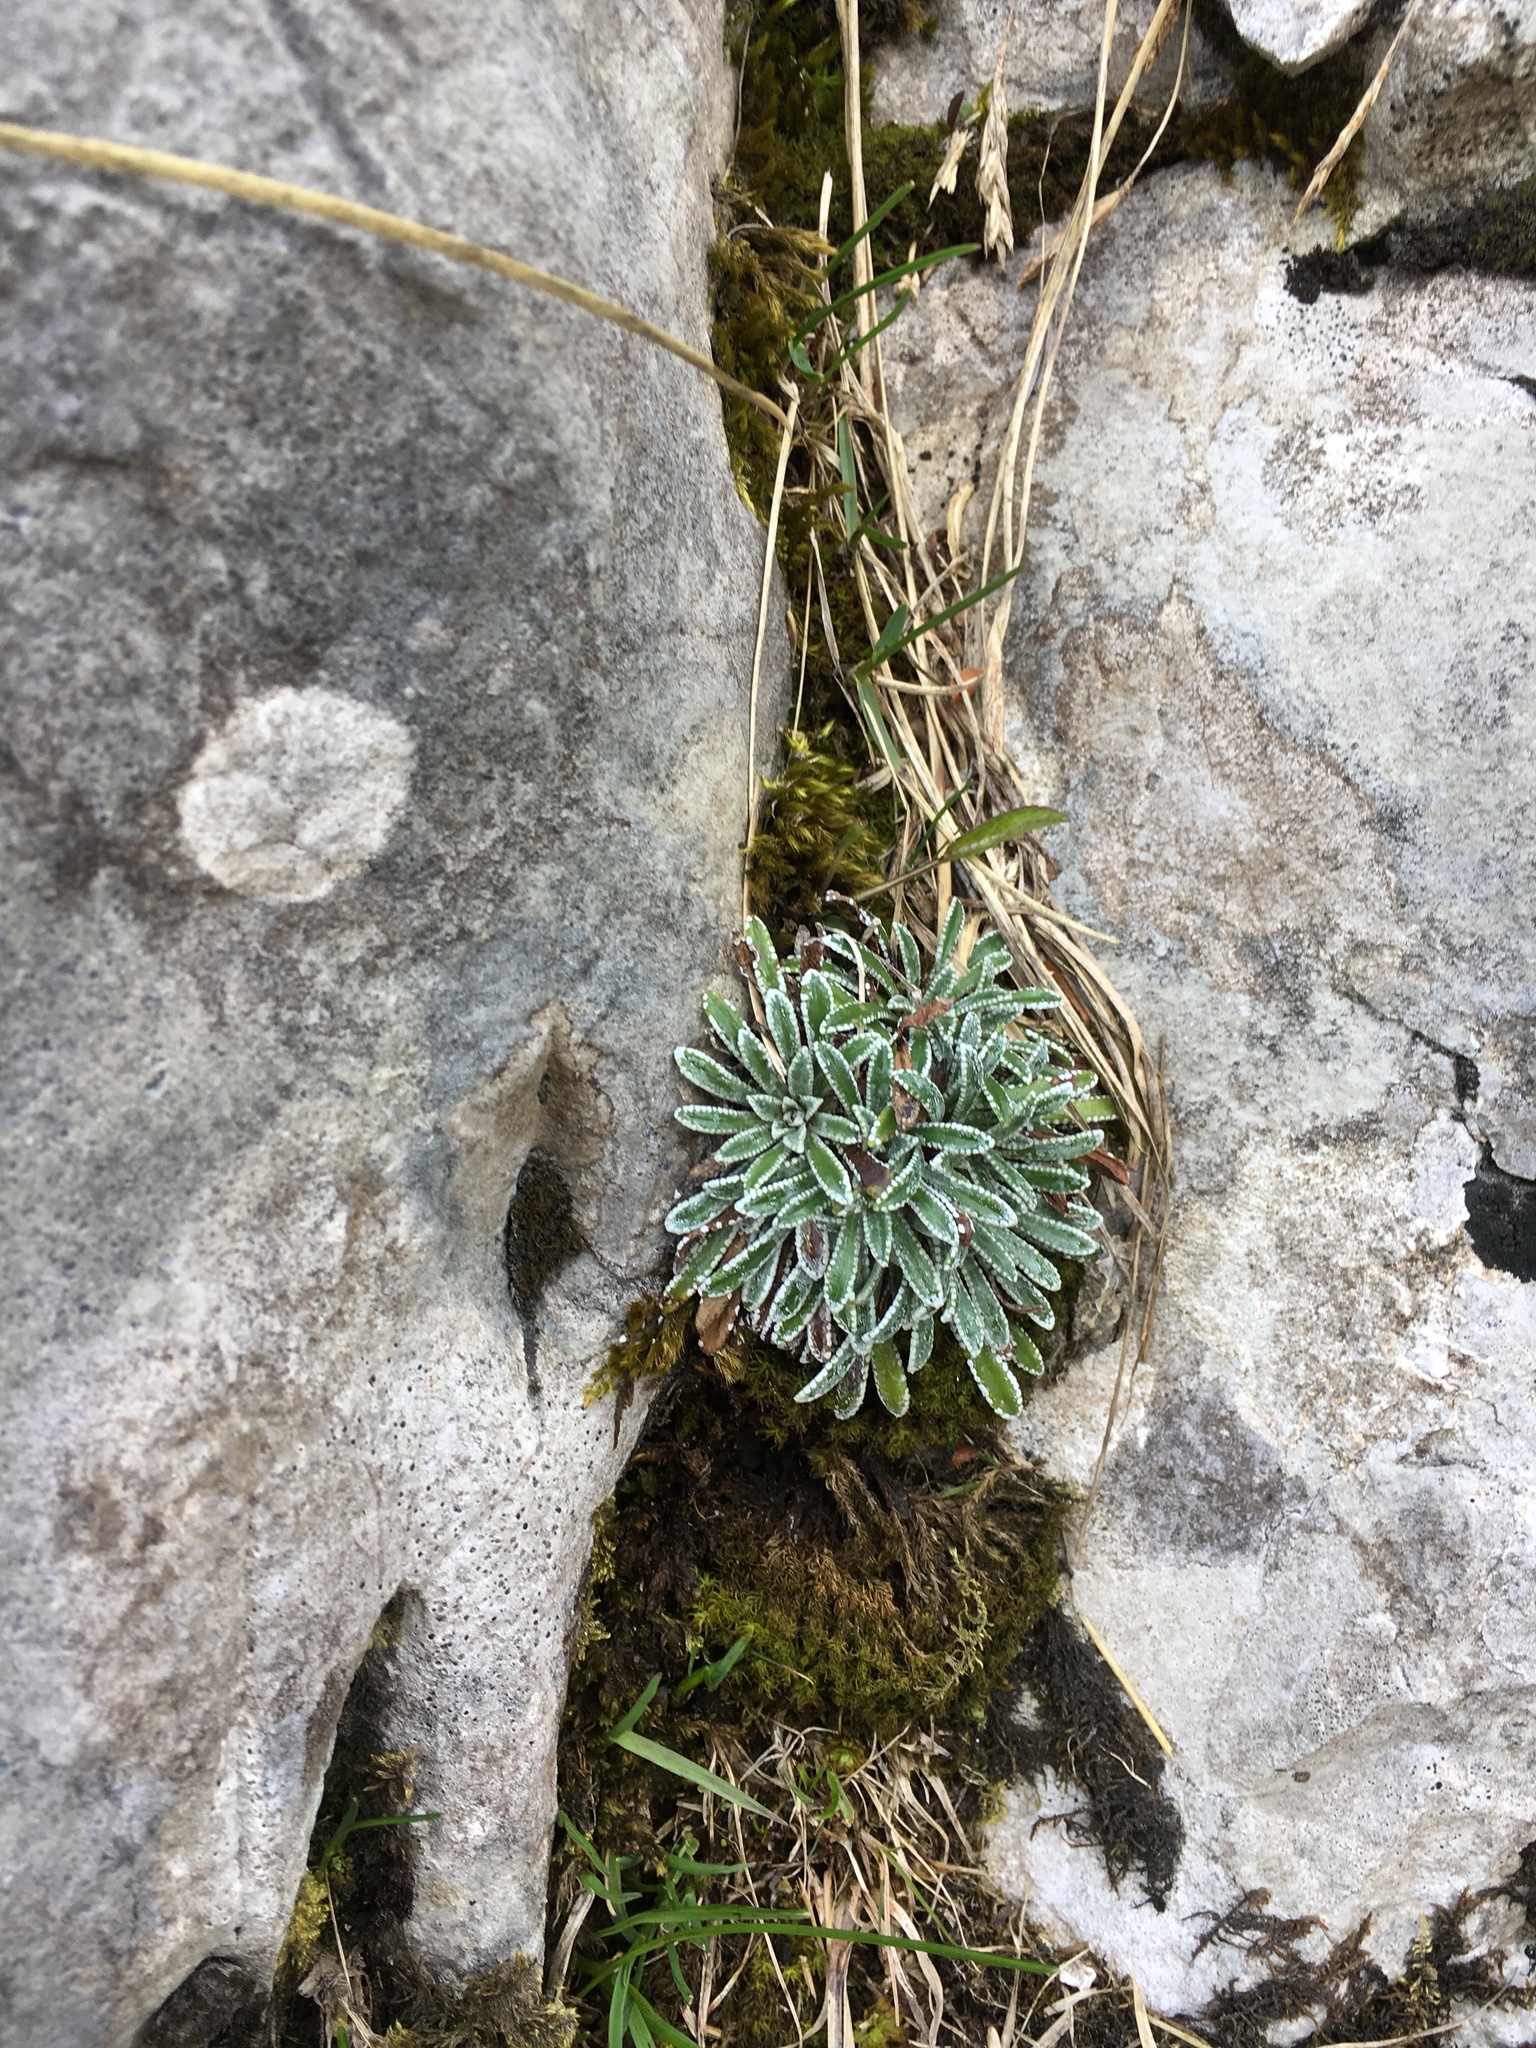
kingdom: Plantae
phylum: Tracheophyta
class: Magnoliopsida
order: Saxifragales
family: Saxifragaceae
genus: Saxifraga
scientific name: Saxifraga crustata
